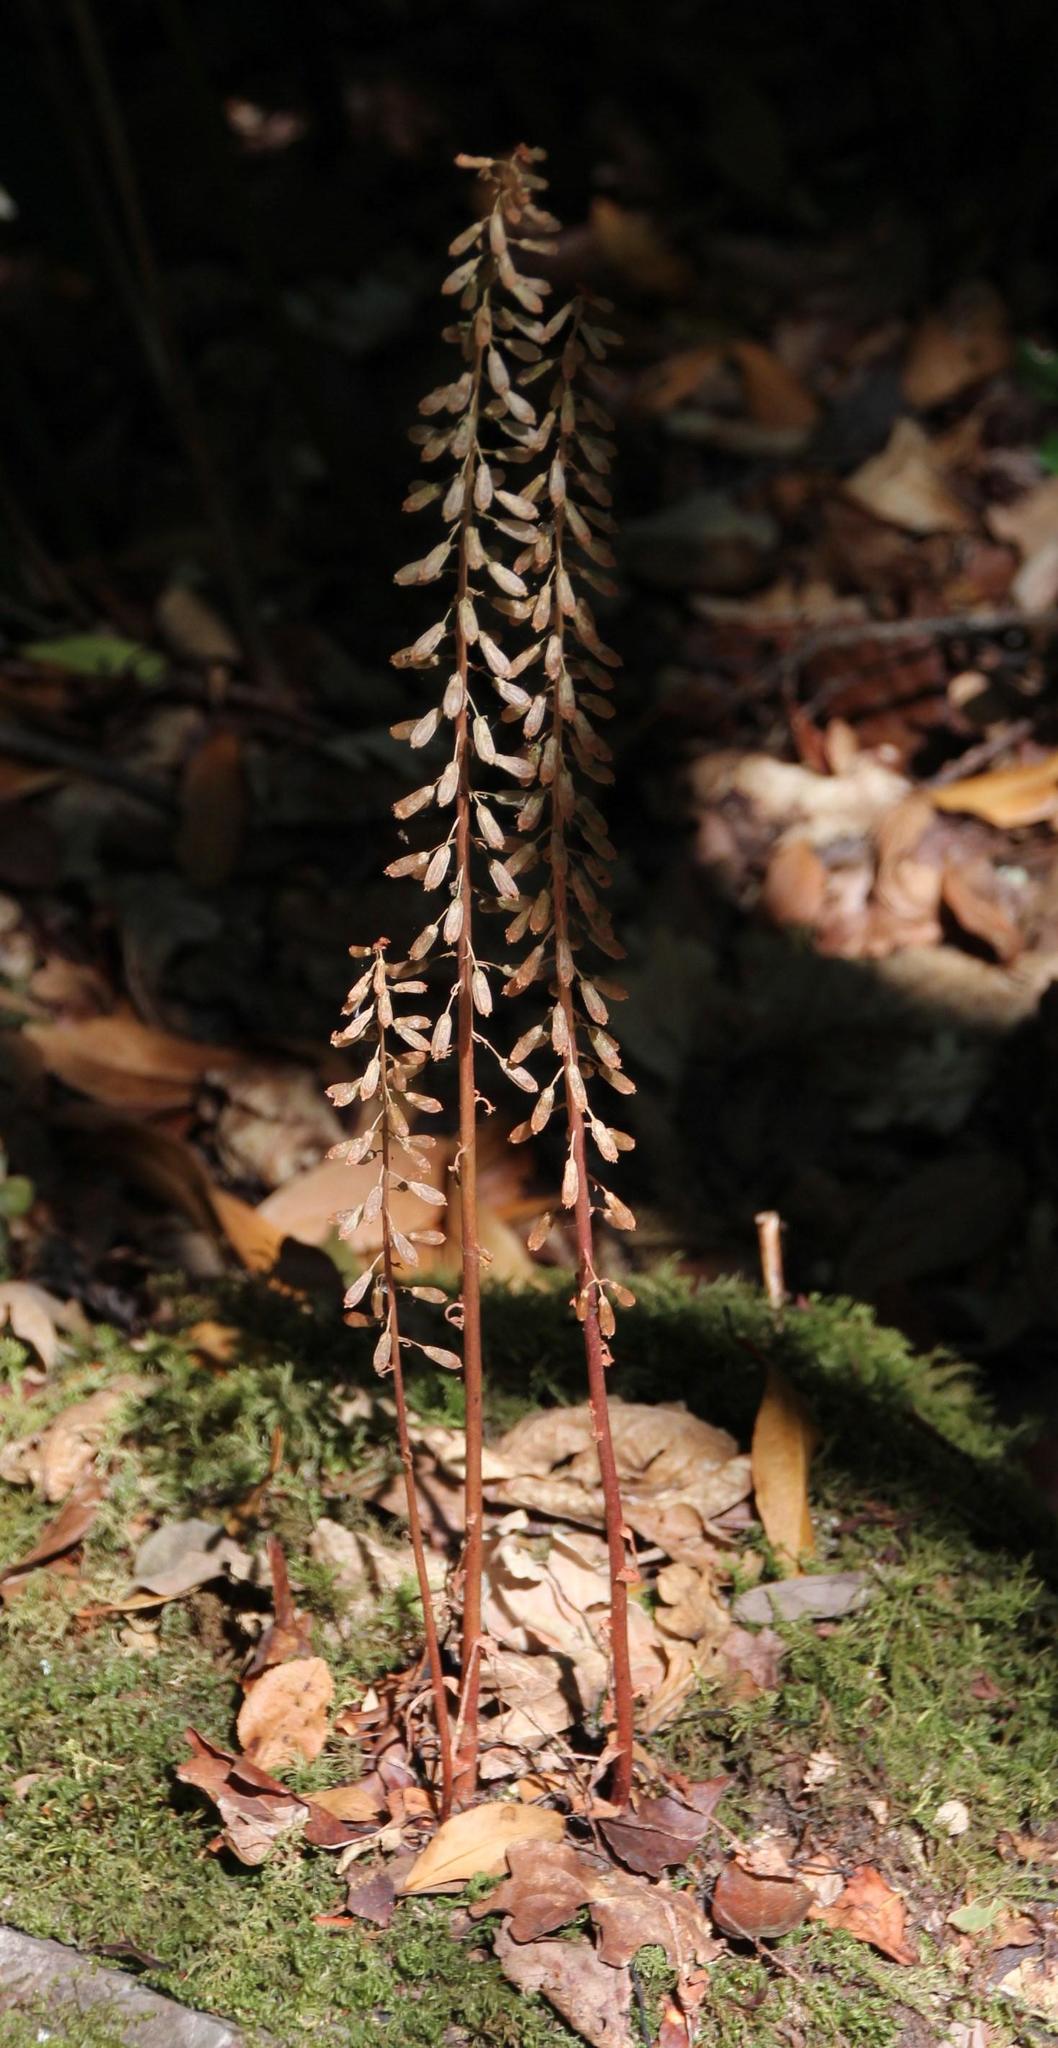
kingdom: Plantae
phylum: Tracheophyta
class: Magnoliopsida
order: Saxifragales
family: Crassulaceae
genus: Umbilicus
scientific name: Umbilicus rupestris
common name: Navelwort
